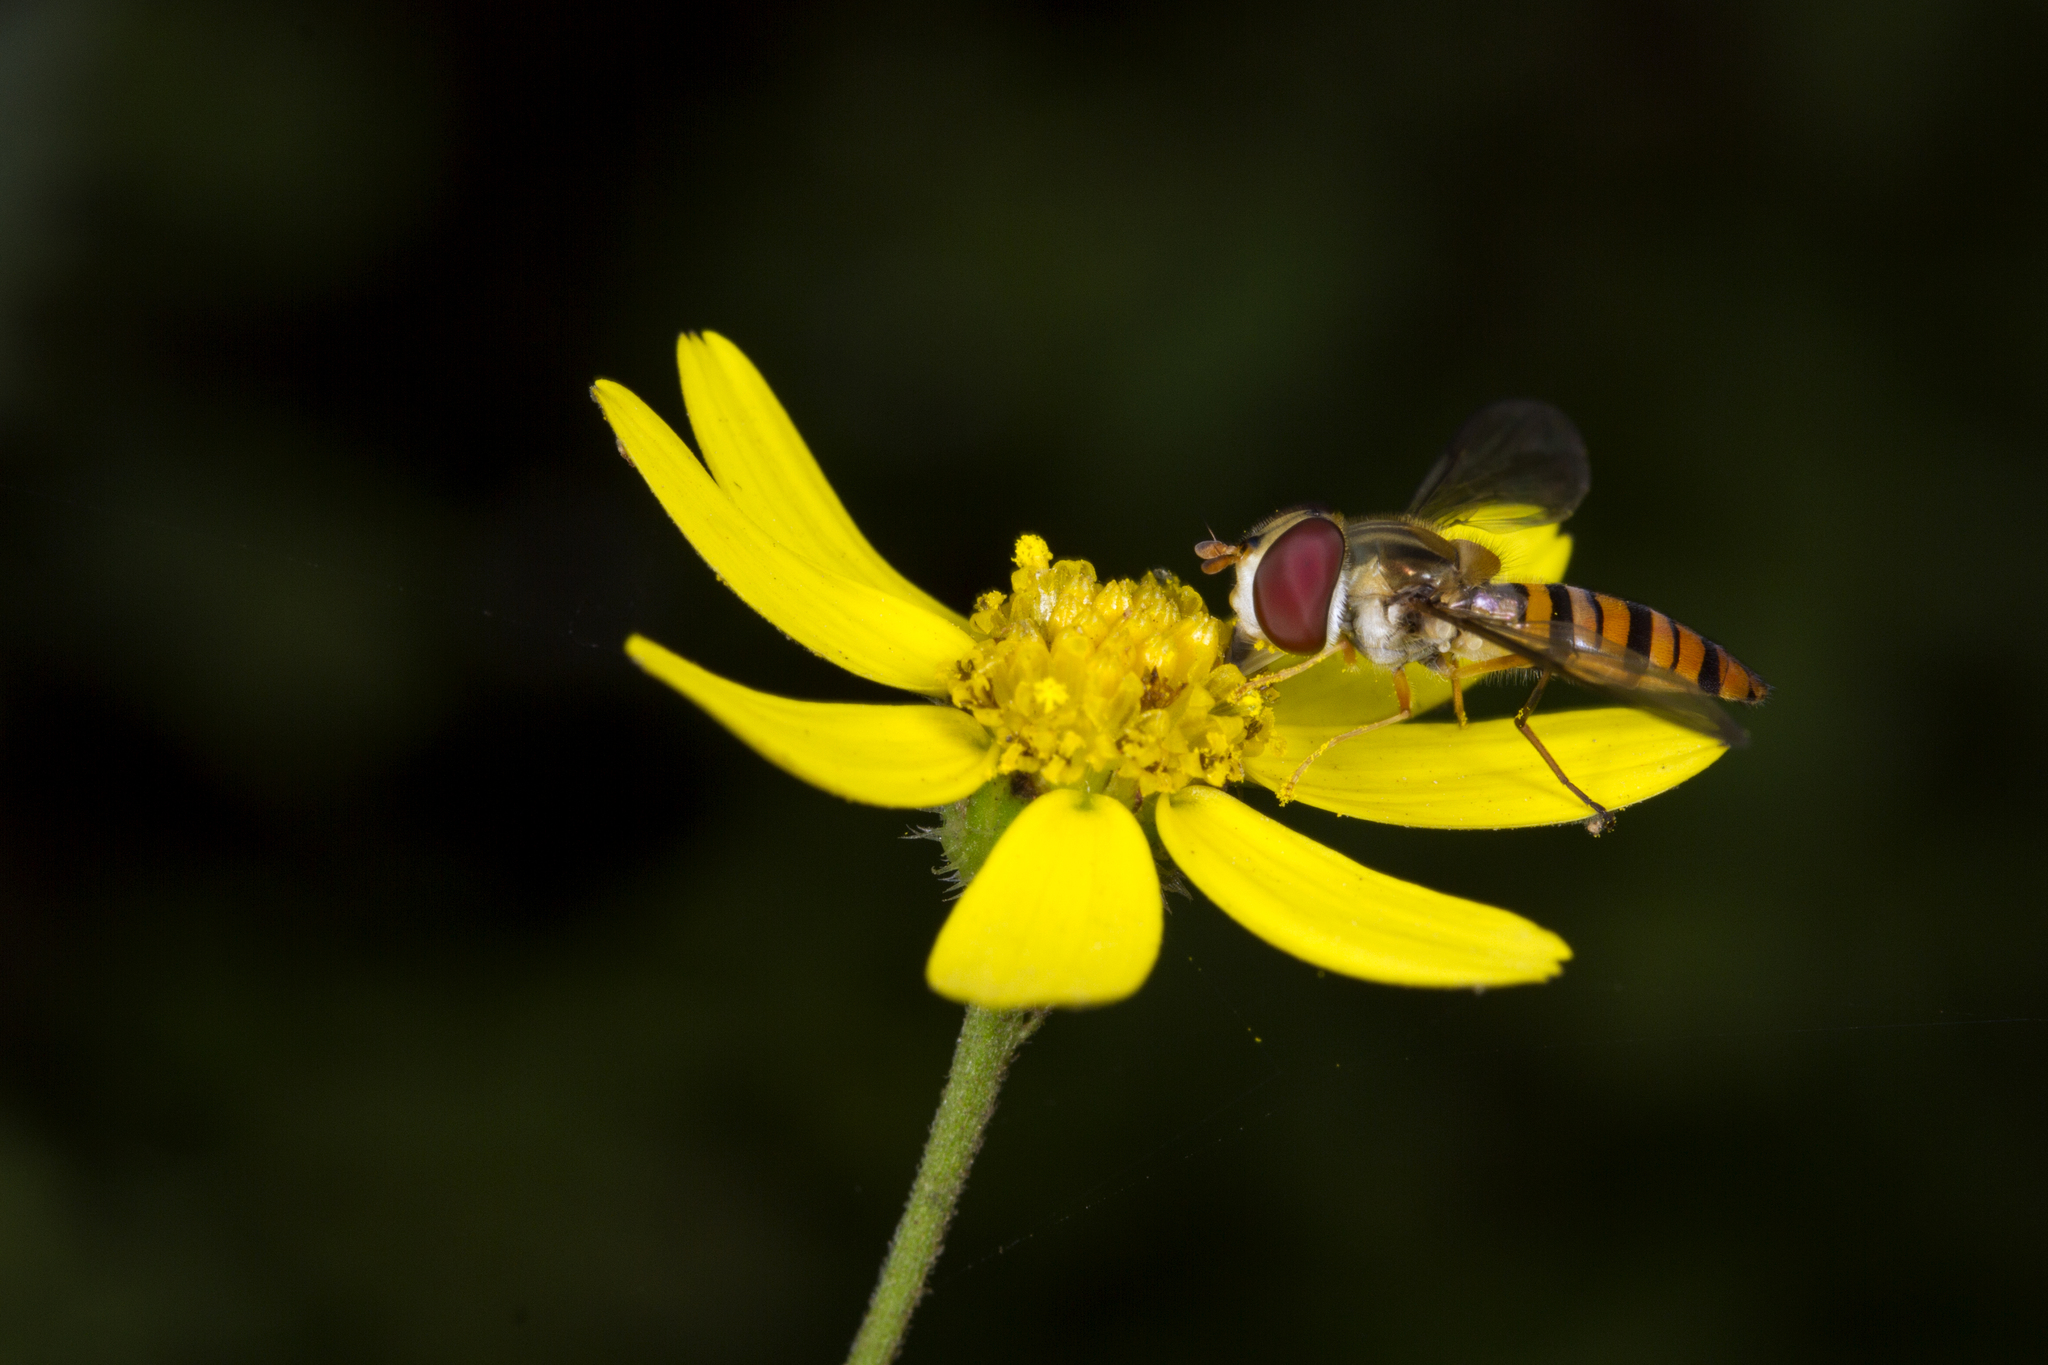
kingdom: Animalia
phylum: Arthropoda
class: Insecta
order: Diptera
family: Syrphidae
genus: Episyrphus
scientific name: Episyrphus viridaureus
